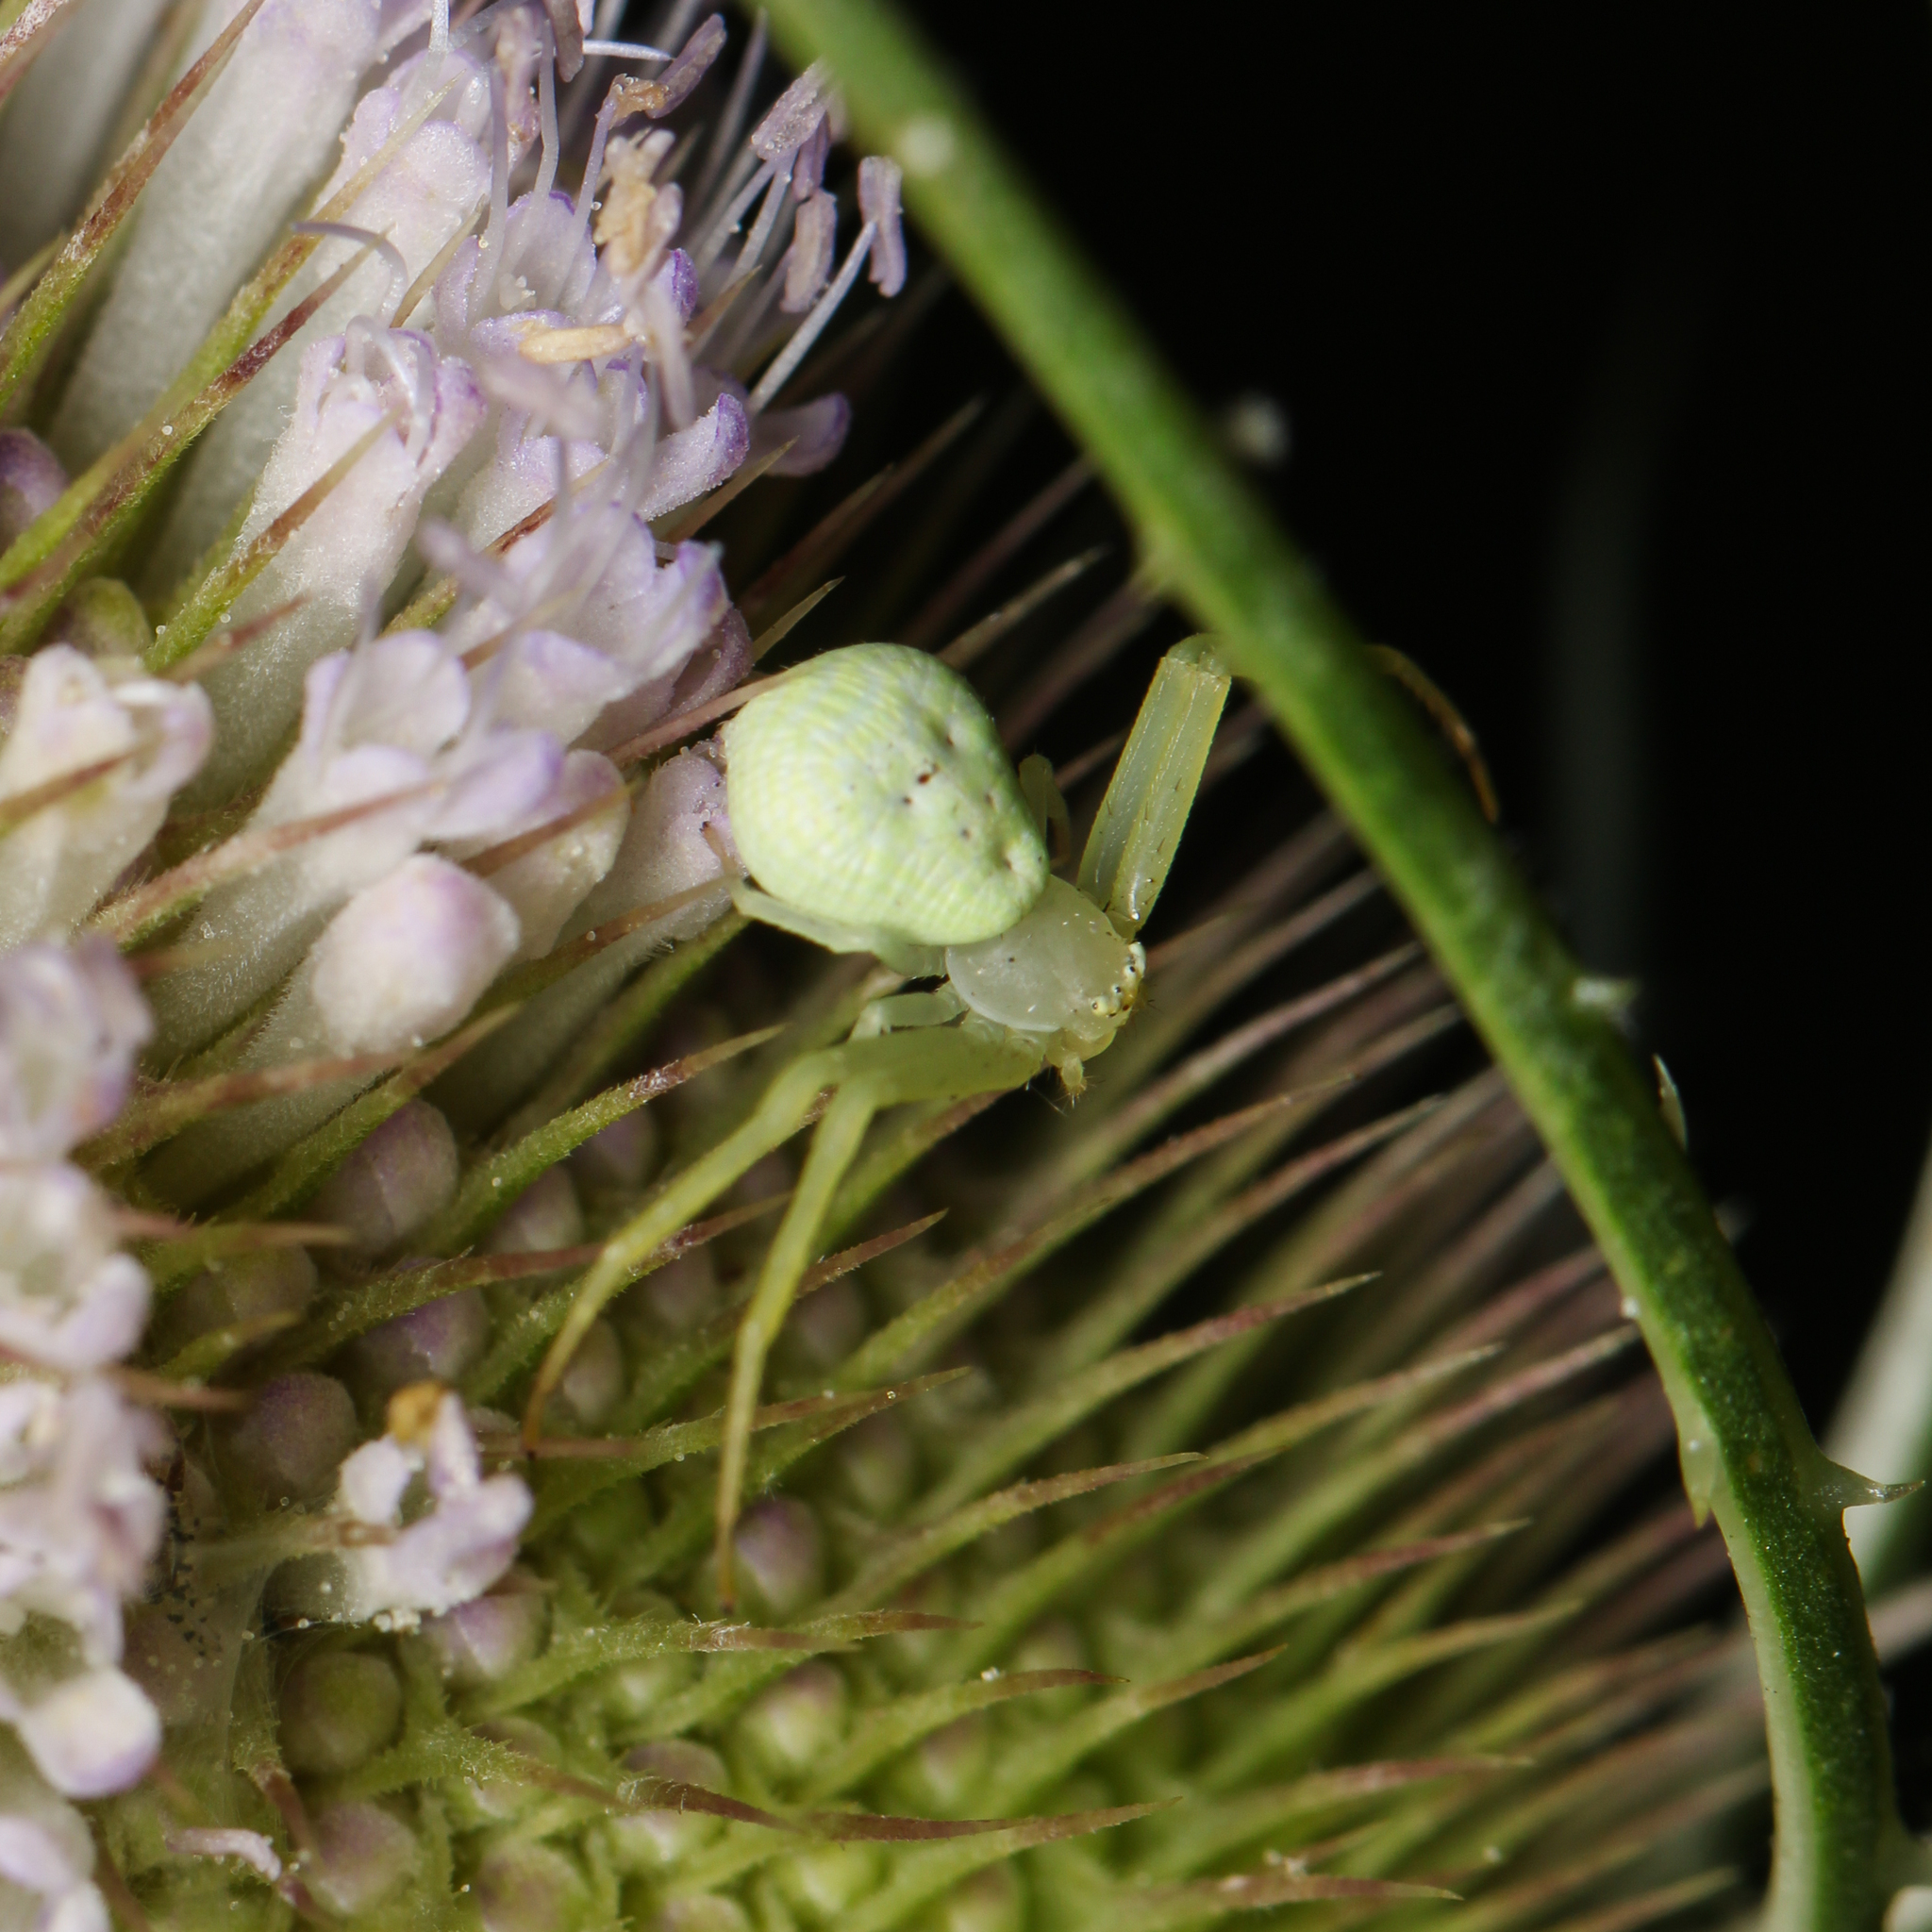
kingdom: Animalia
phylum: Arthropoda
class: Arachnida
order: Araneae
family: Thomisidae
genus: Misumessus
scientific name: Misumessus oblongus
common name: American green crab spider
